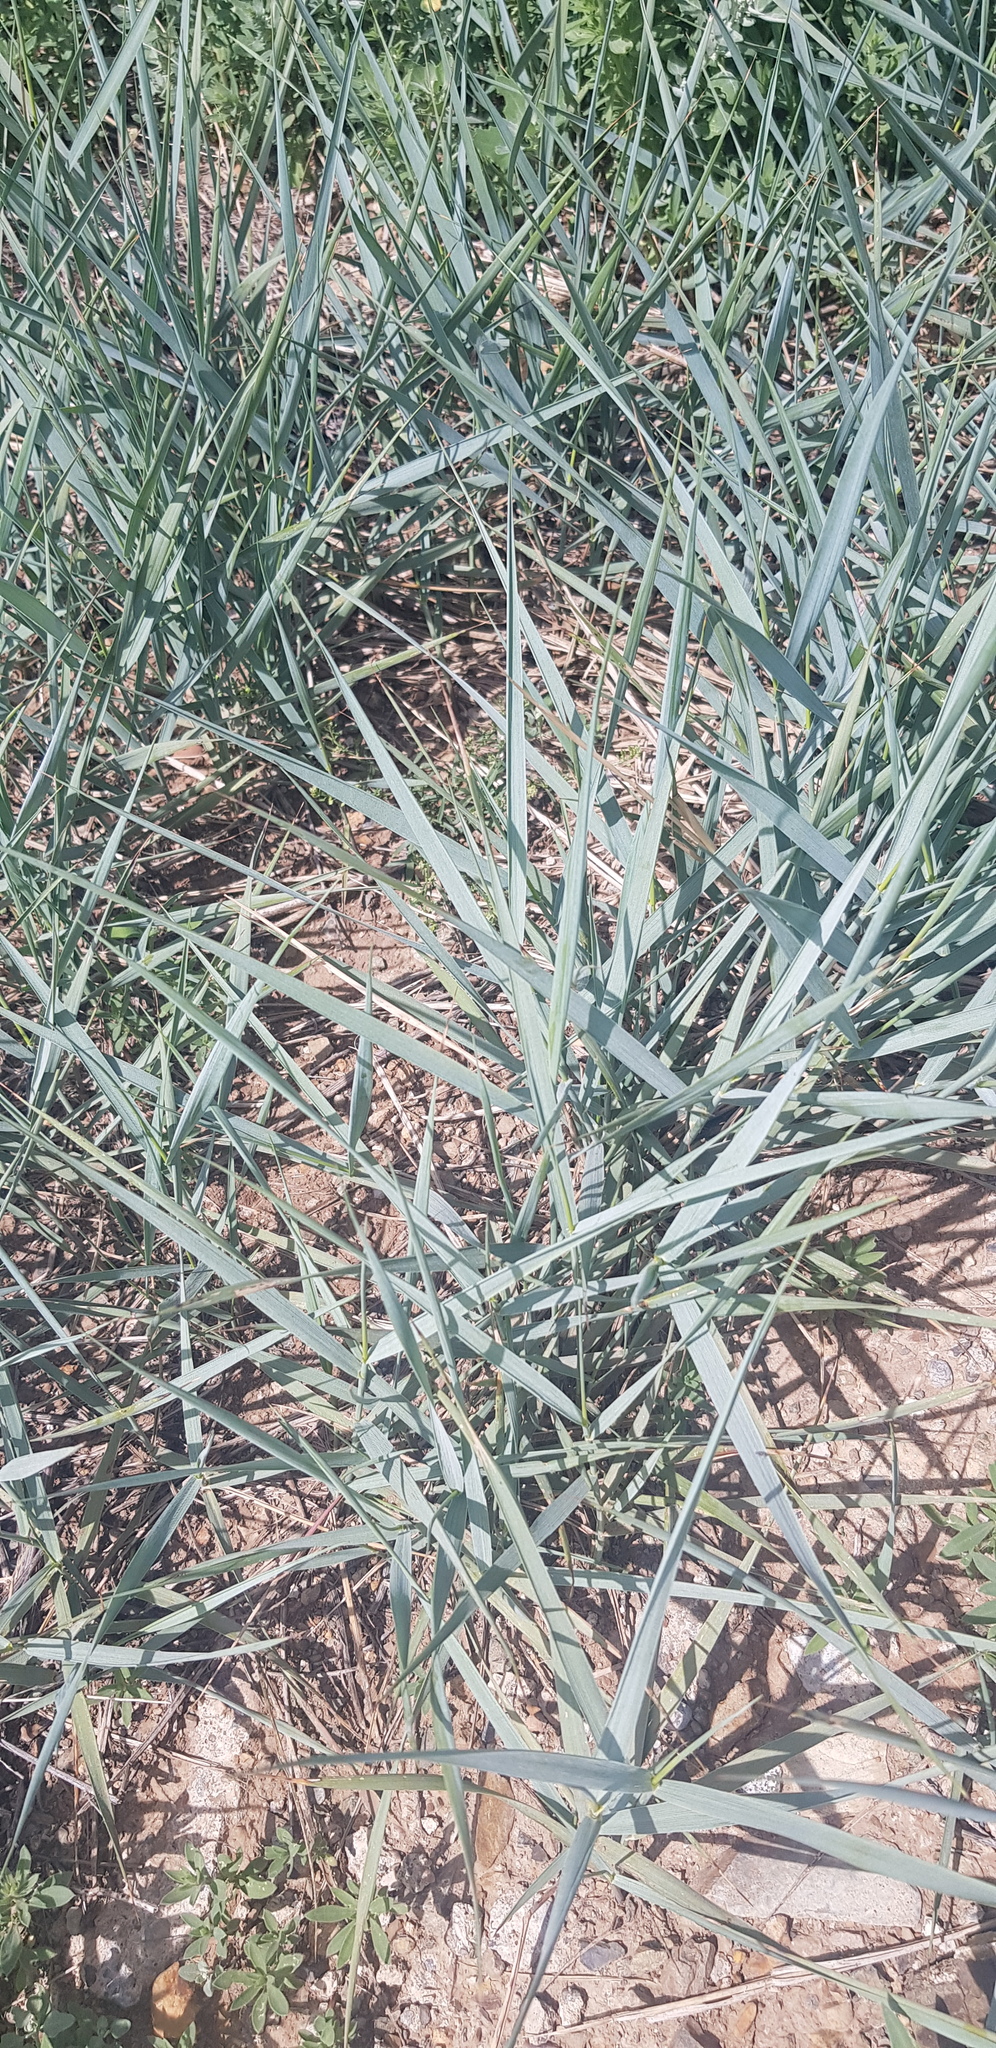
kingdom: Plantae
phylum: Tracheophyta
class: Liliopsida
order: Poales
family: Poaceae
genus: Leymus
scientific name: Leymus chinensis
